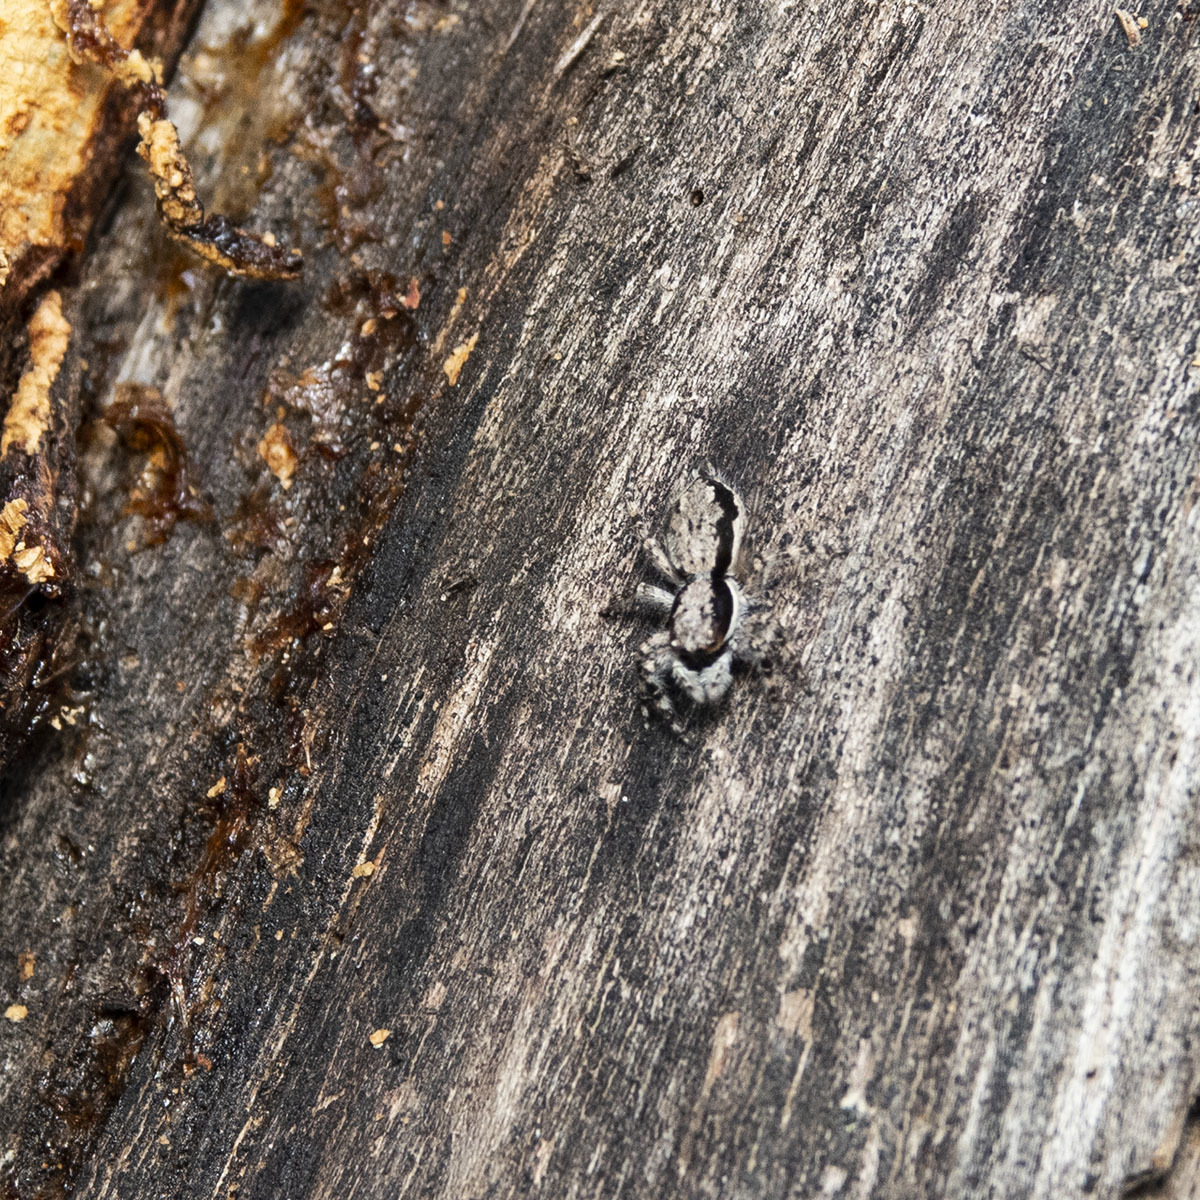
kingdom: Animalia
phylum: Arthropoda
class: Arachnida
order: Araneae
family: Salticidae
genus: Menemerus
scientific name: Menemerus bivittatus
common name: Gray wall jumper
